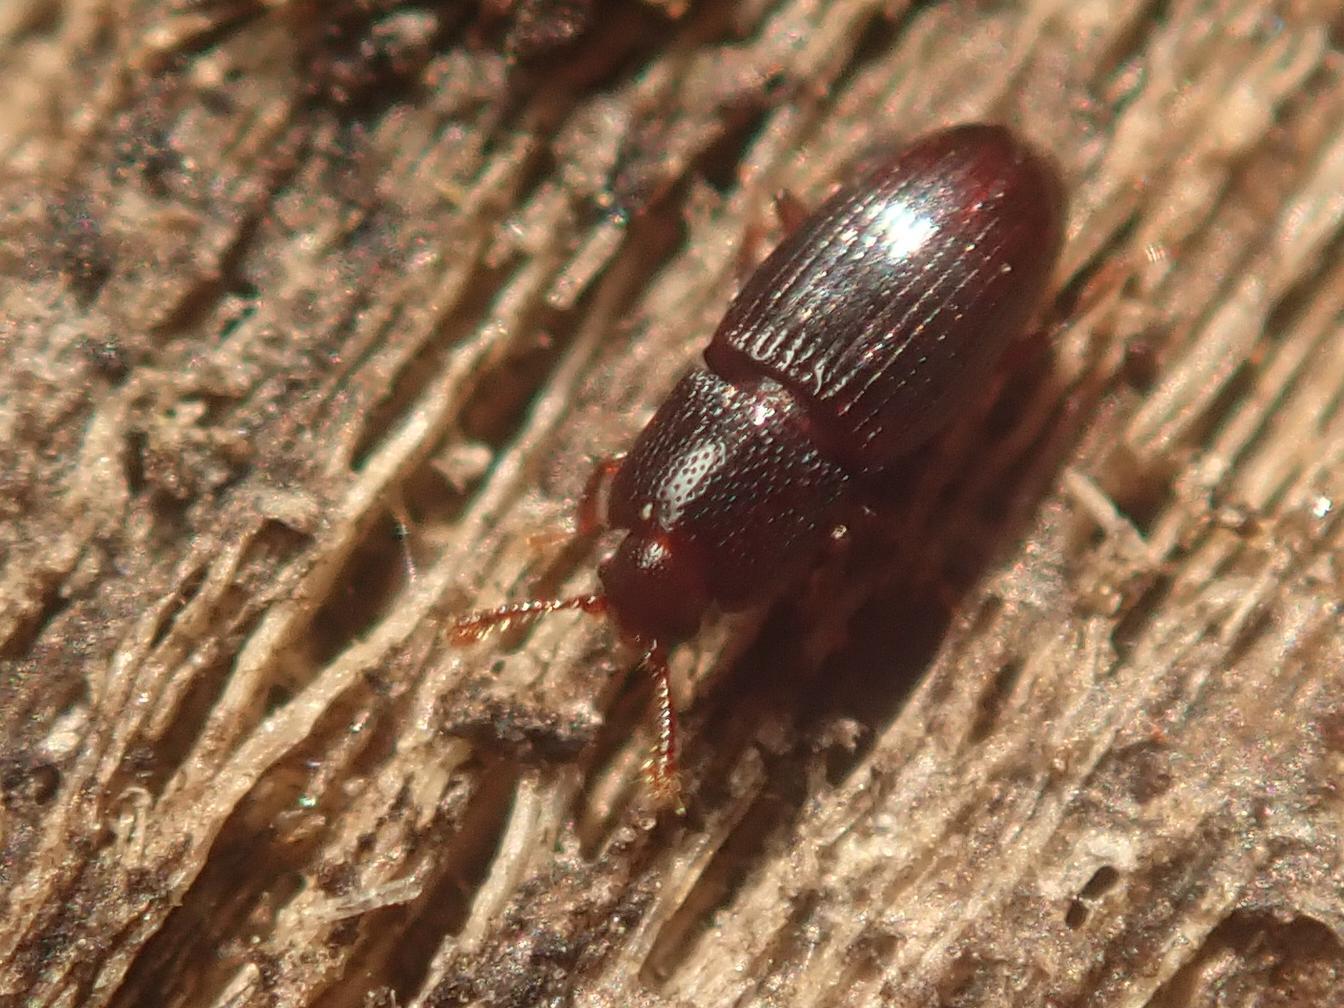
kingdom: Animalia
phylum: Arthropoda
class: Insecta
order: Coleoptera
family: Cerylonidae
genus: Cerylon
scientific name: Cerylon histeroides
